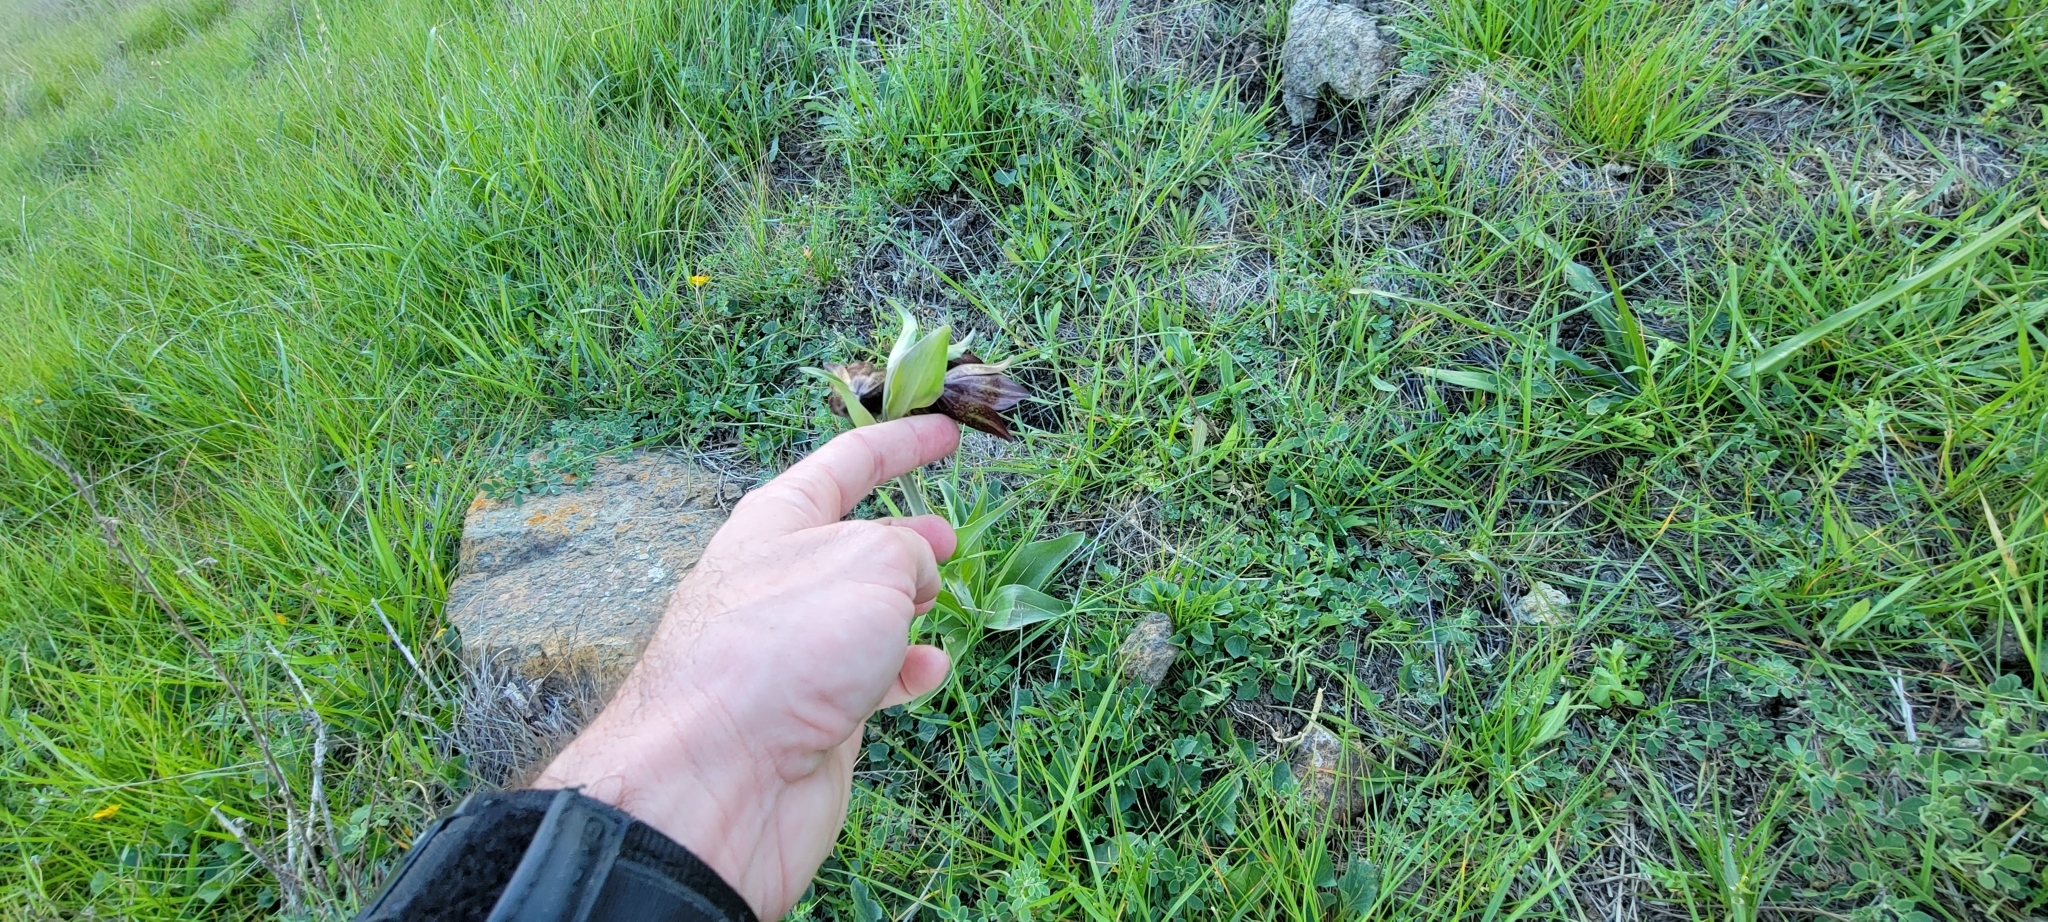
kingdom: Plantae
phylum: Tracheophyta
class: Liliopsida
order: Liliales
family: Liliaceae
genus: Fritillaria
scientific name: Fritillaria biflora
